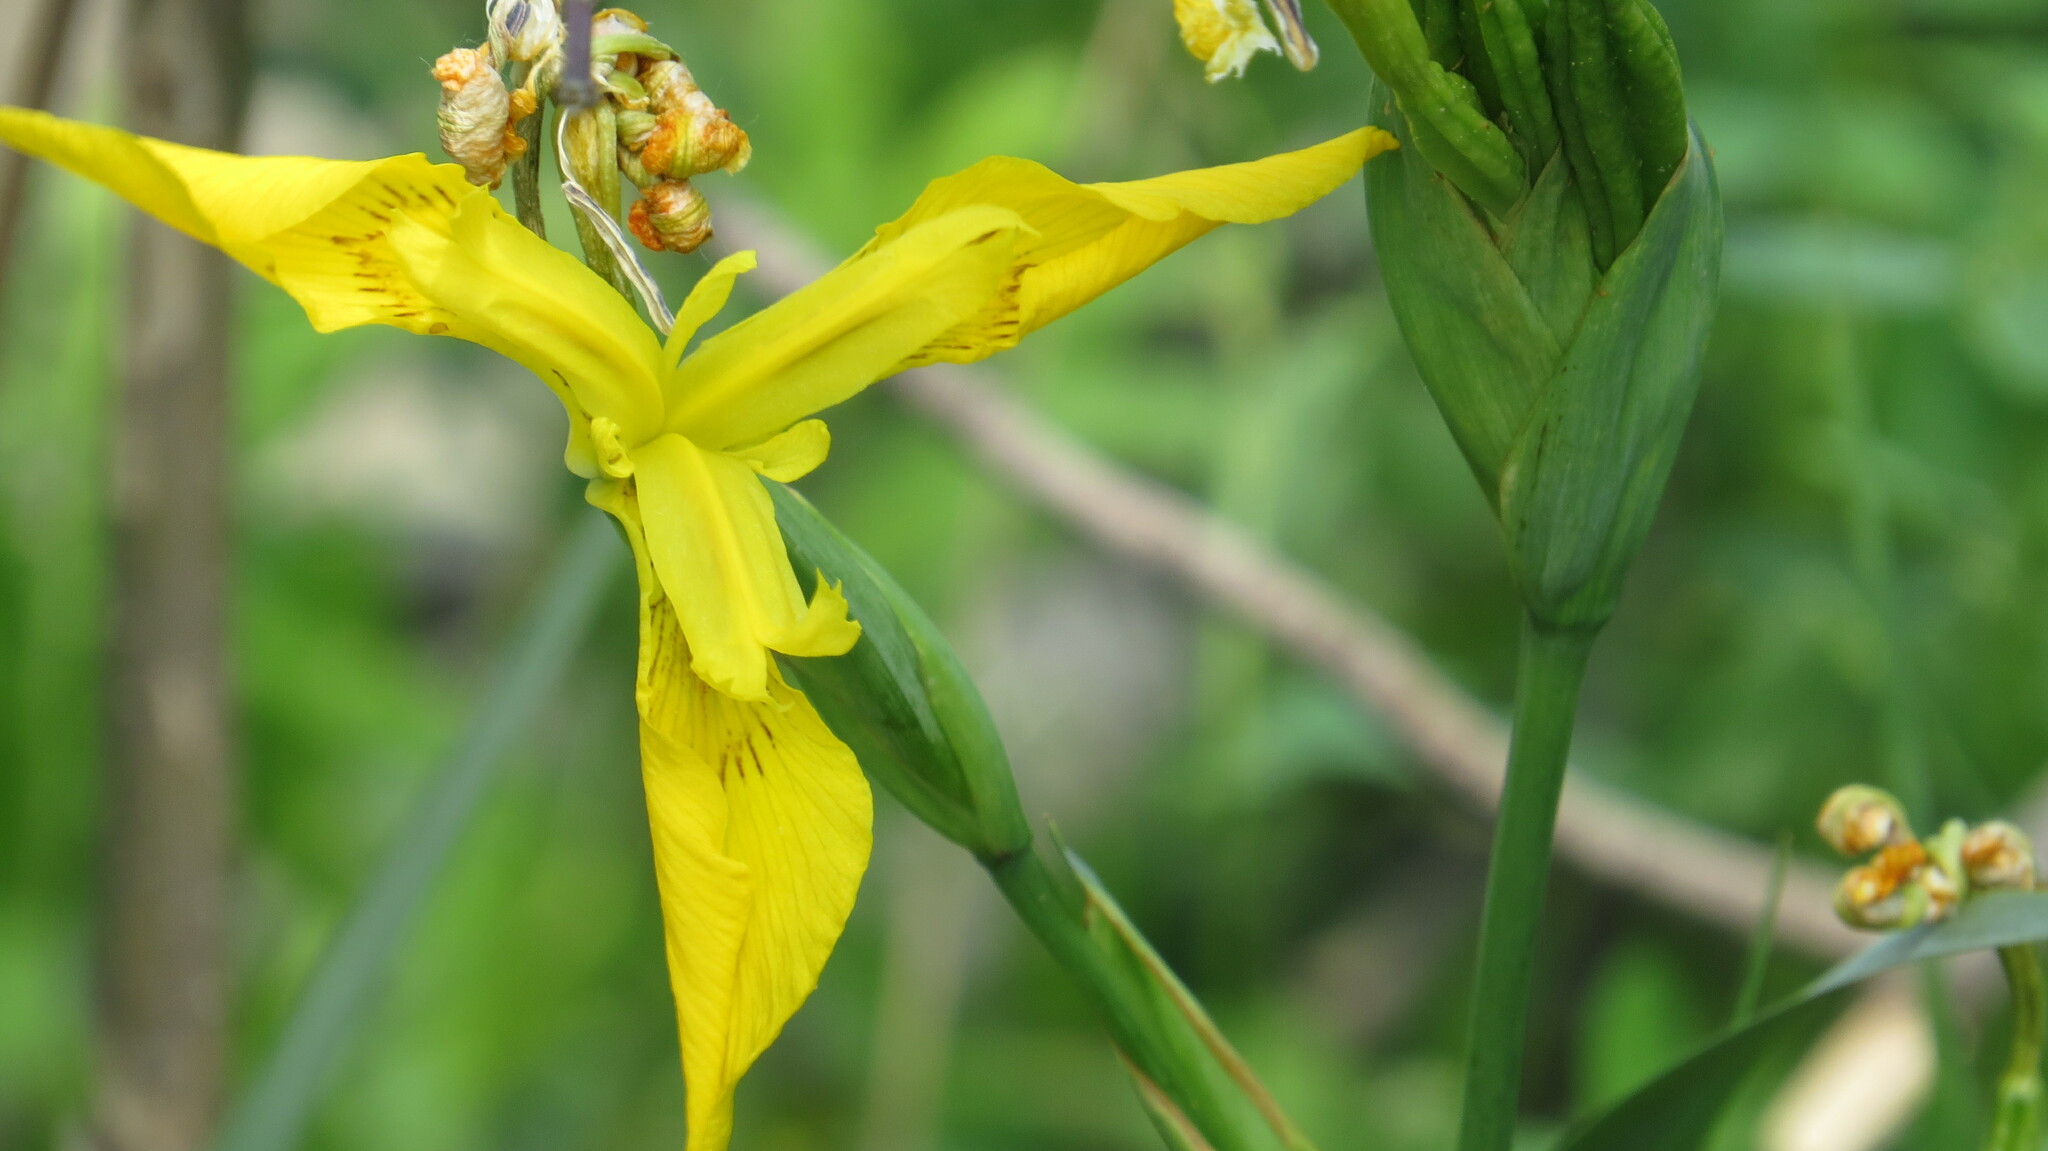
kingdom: Plantae
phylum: Tracheophyta
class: Liliopsida
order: Asparagales
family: Iridaceae
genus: Iris
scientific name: Iris pseudacorus
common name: Yellow flag
